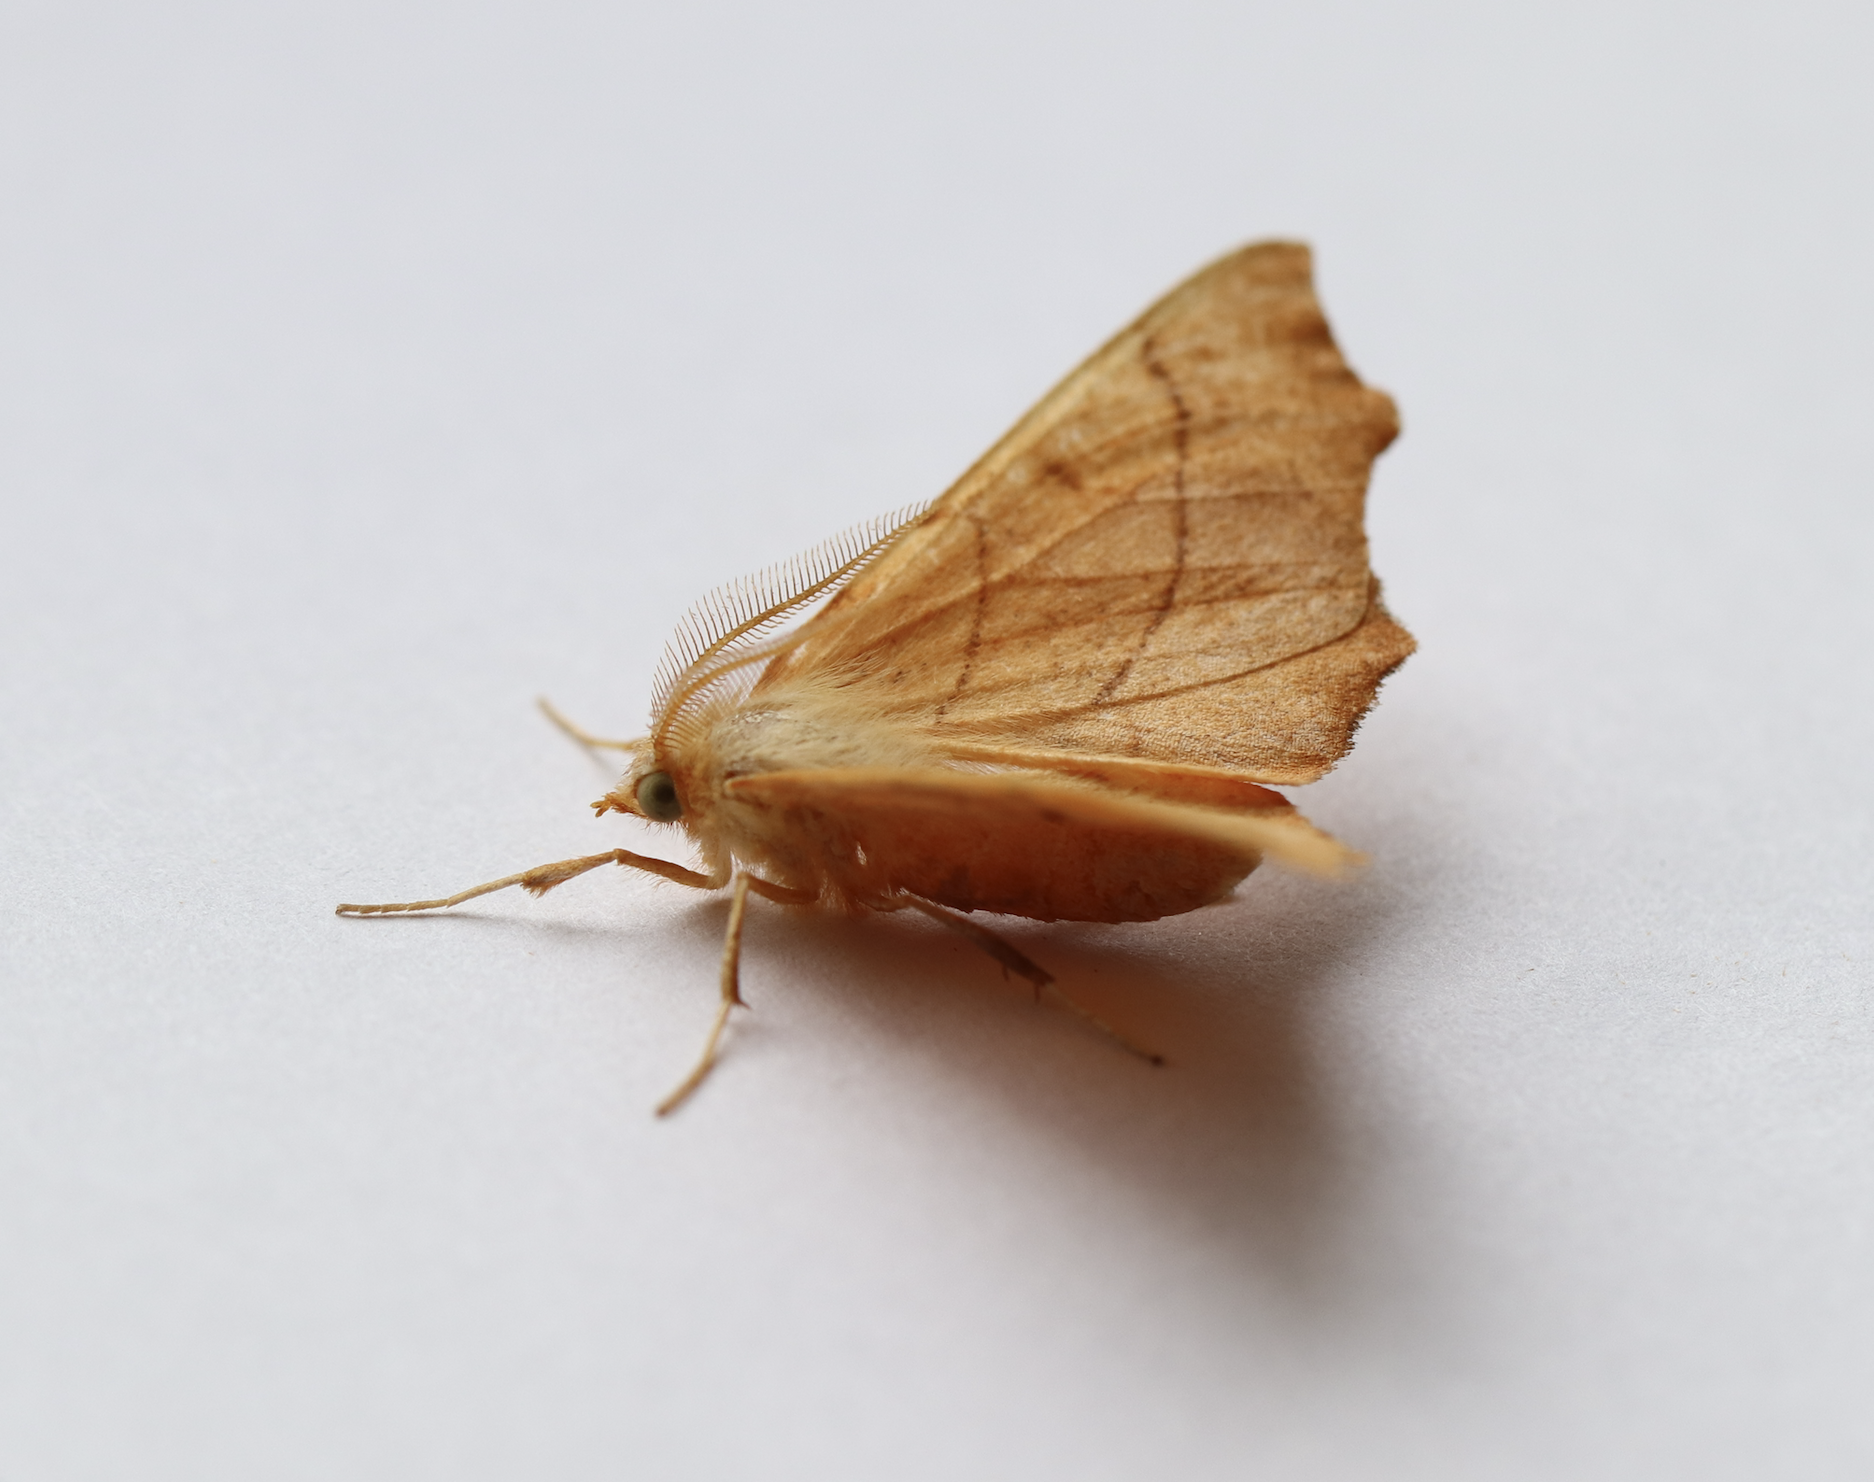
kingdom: Animalia
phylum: Arthropoda
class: Insecta
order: Lepidoptera
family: Geometridae
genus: Ennomos
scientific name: Ennomos quercinaria
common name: August thorn
